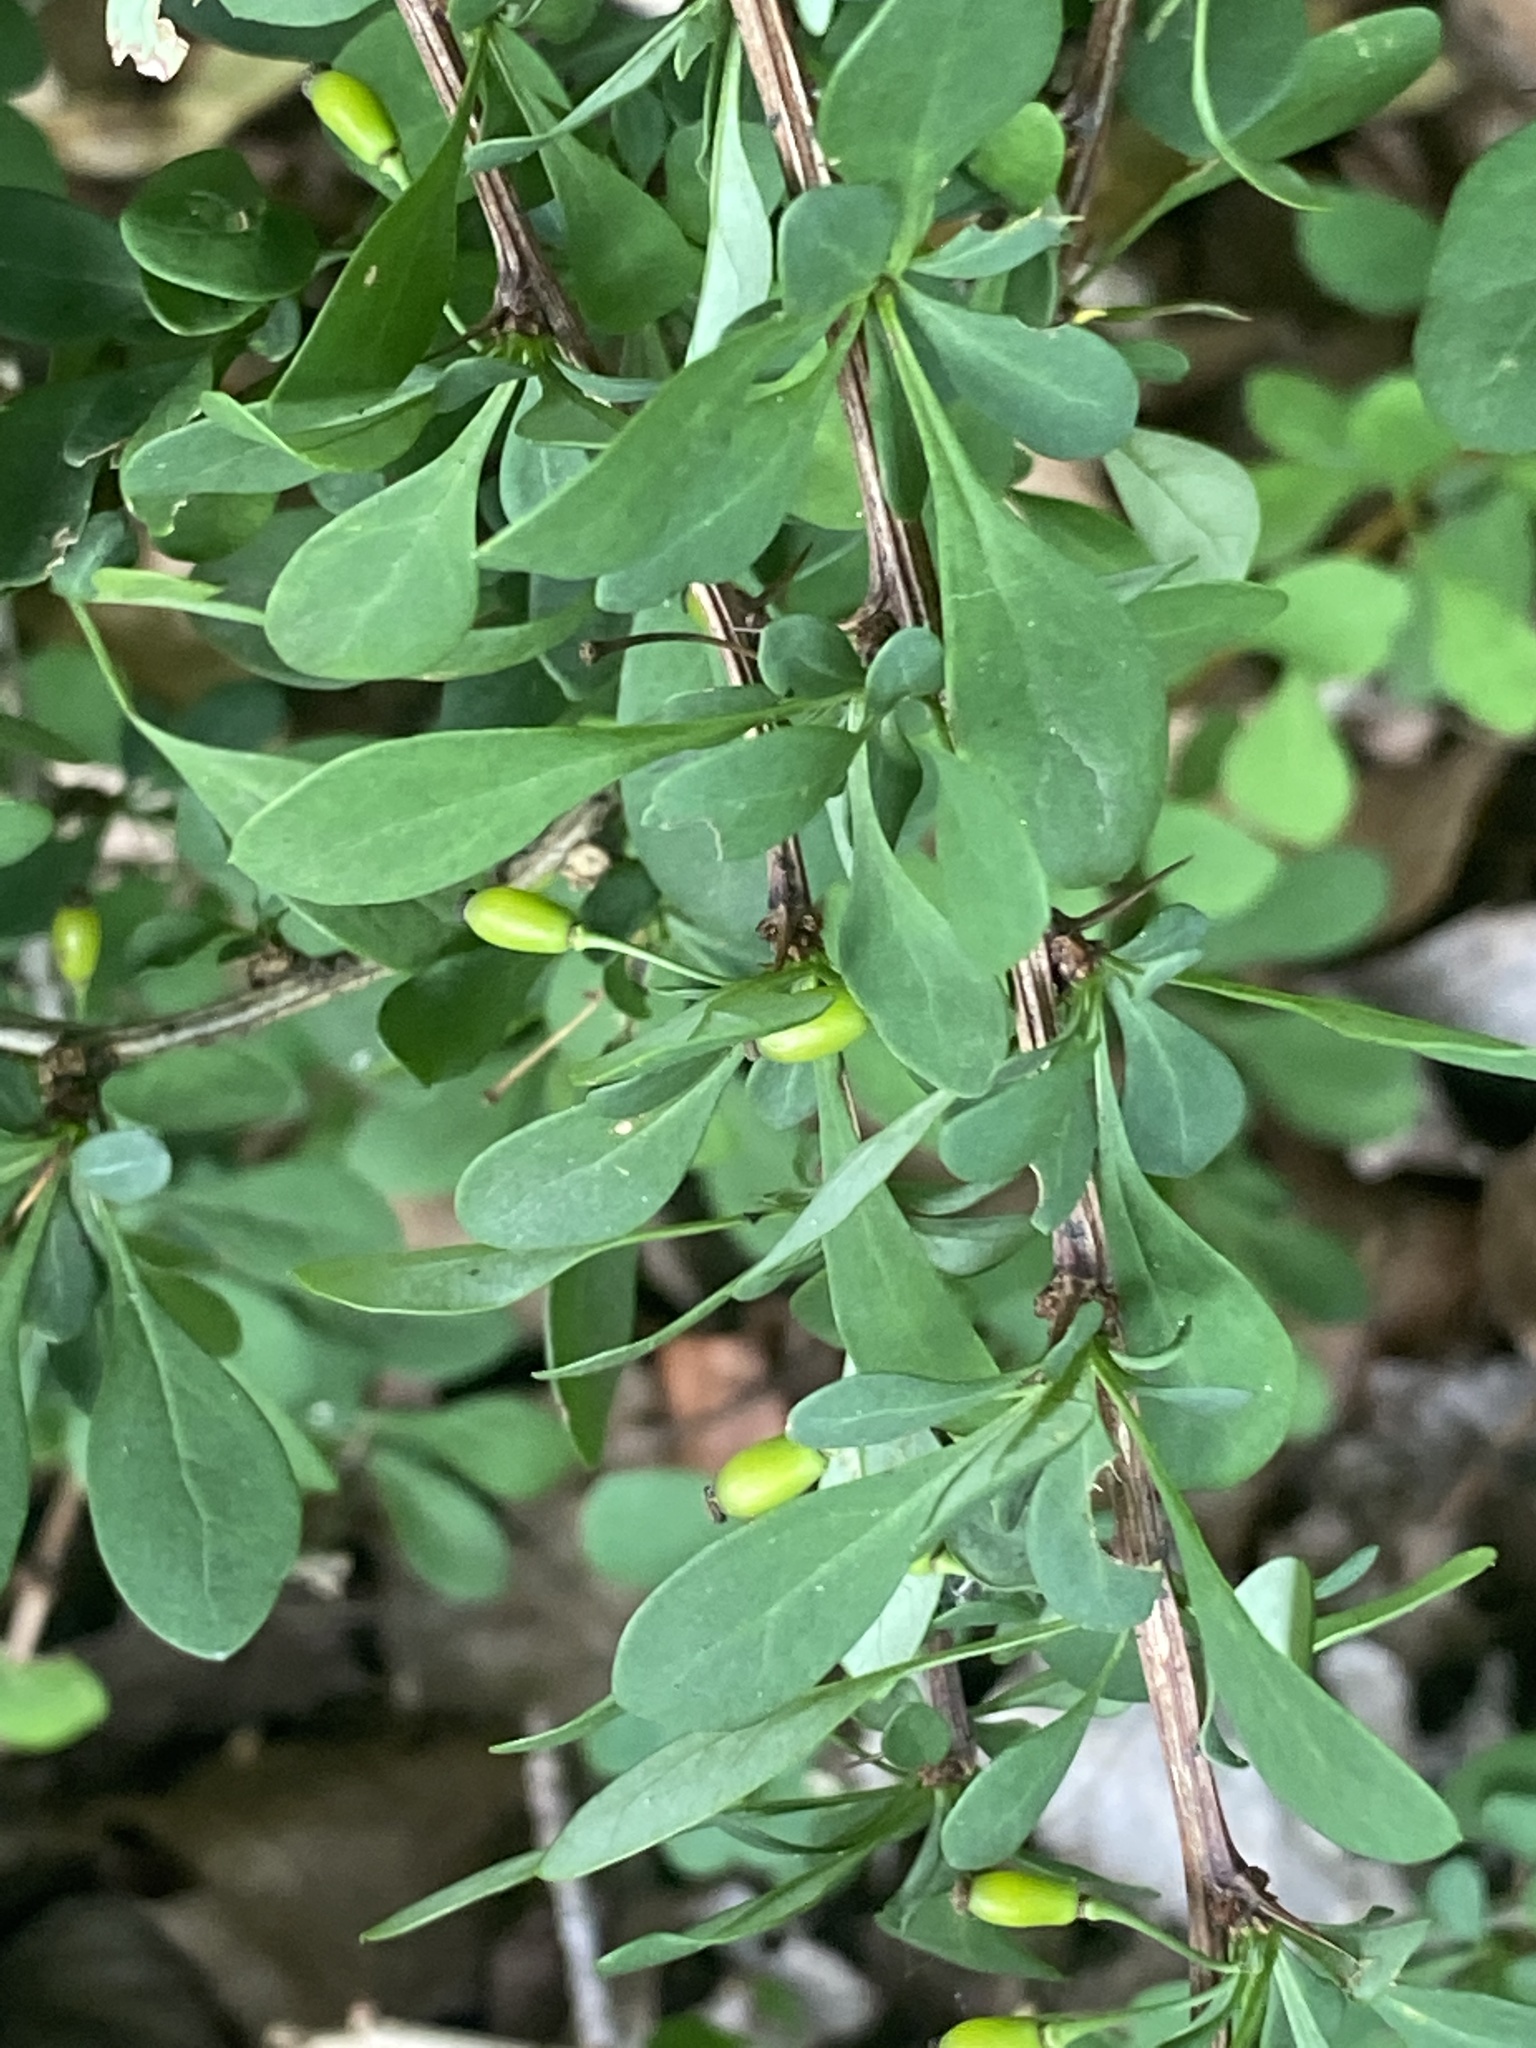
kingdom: Plantae
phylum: Tracheophyta
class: Magnoliopsida
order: Ranunculales
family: Berberidaceae
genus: Berberis
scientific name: Berberis thunbergii
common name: Japanese barberry
